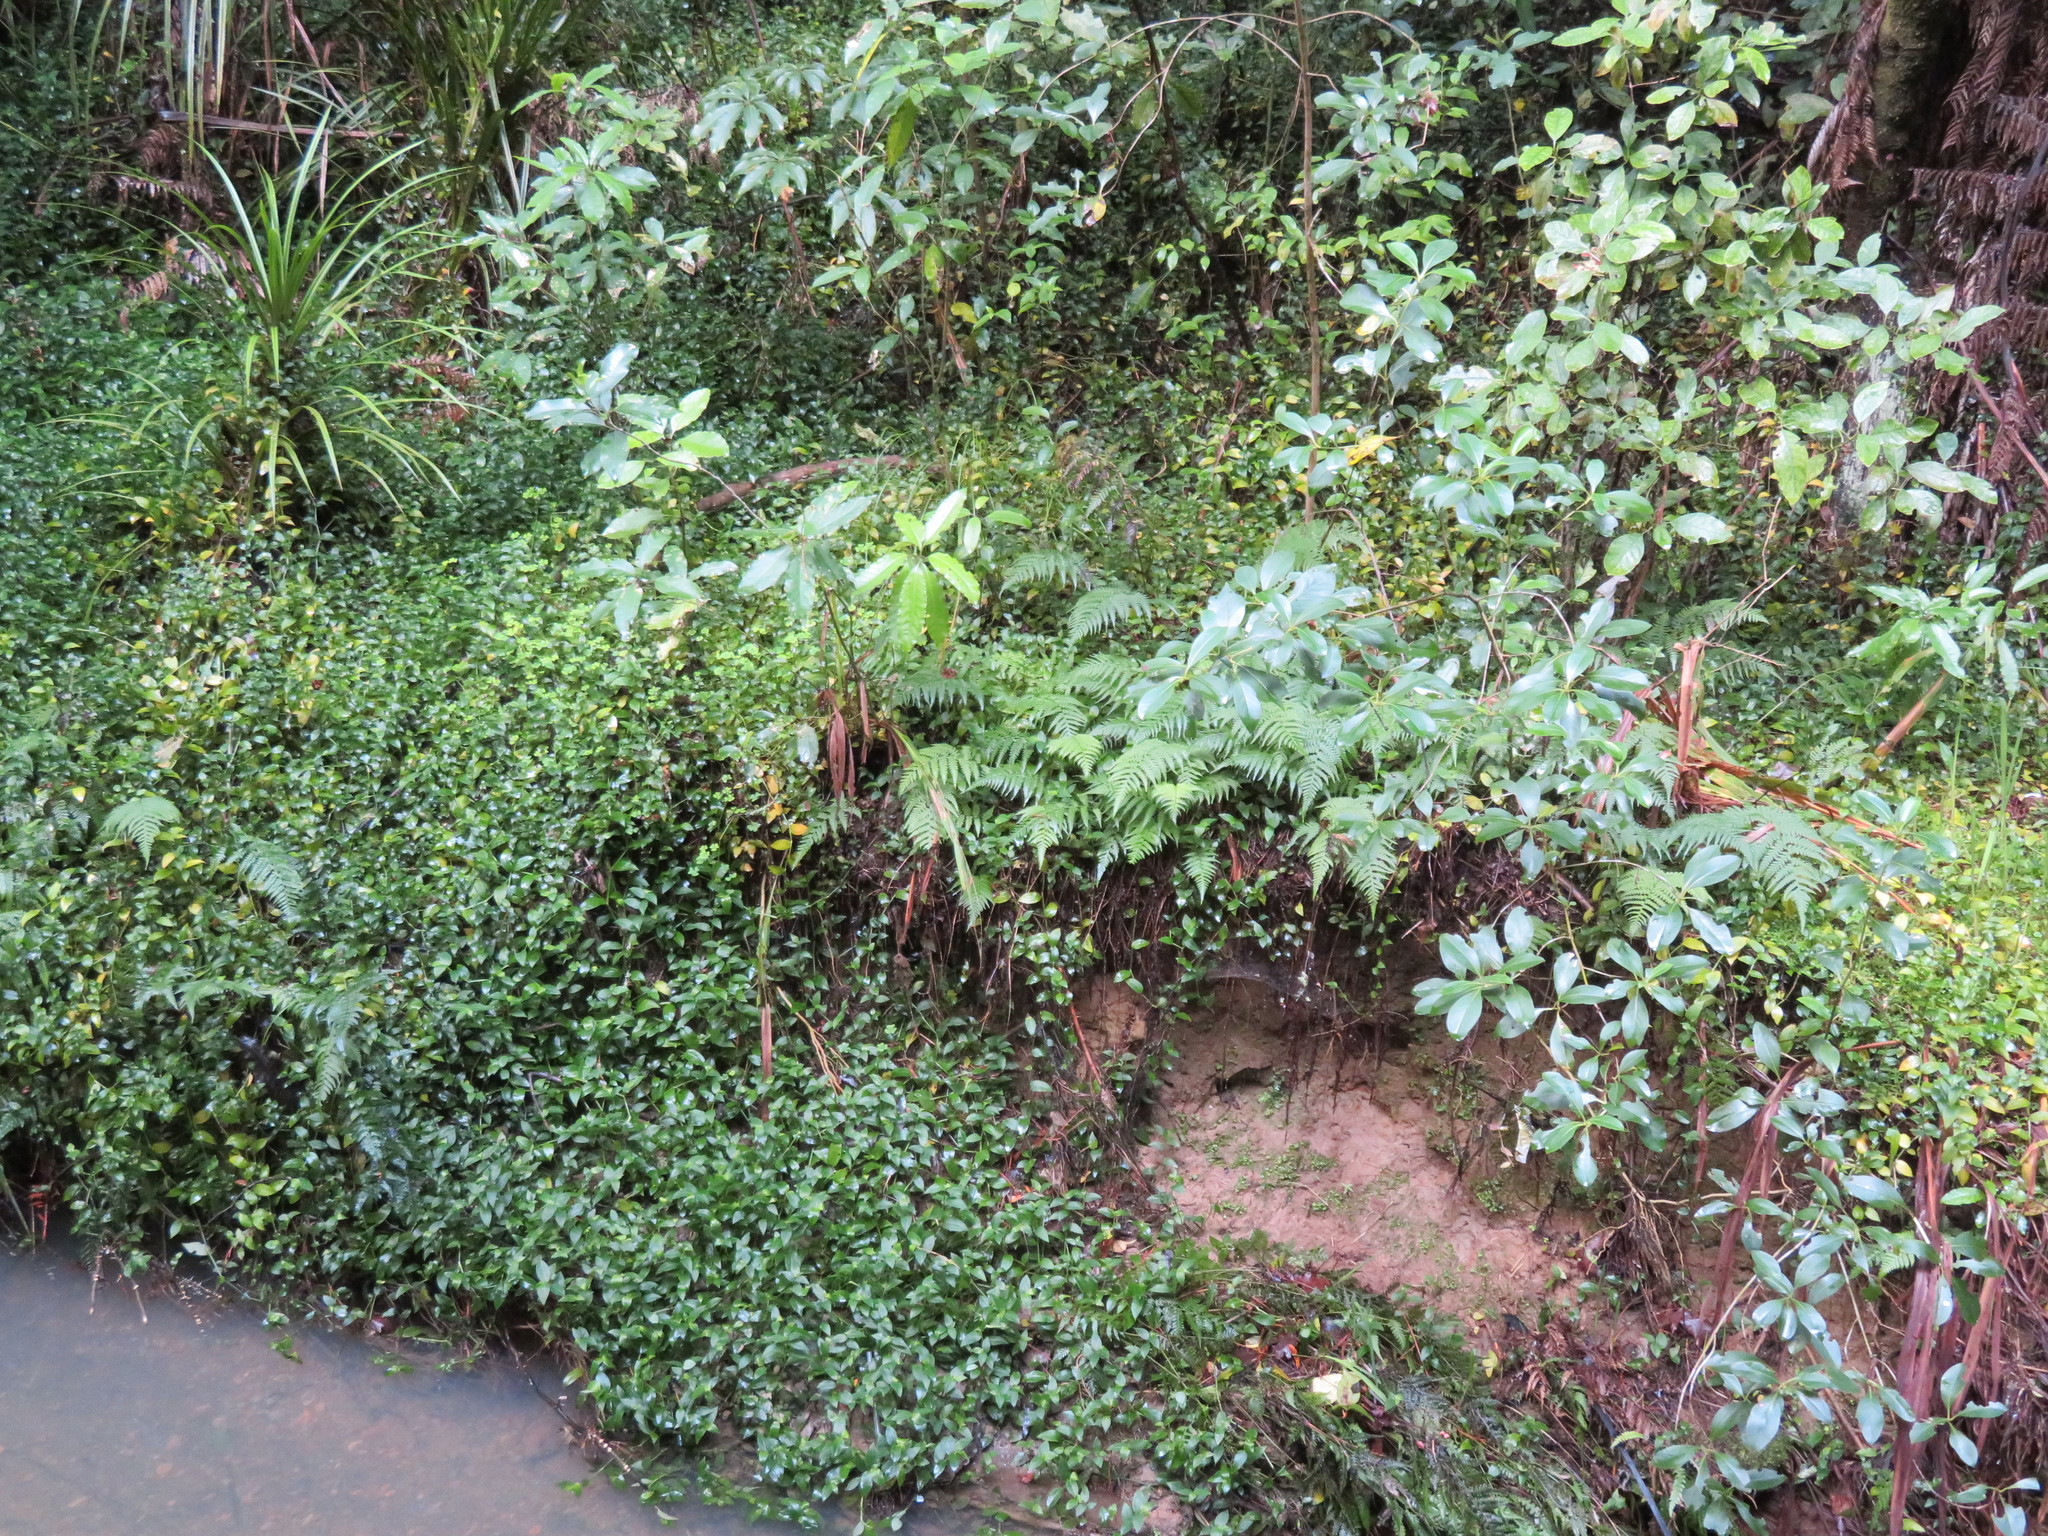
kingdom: Plantae
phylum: Tracheophyta
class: Polypodiopsida
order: Polypodiales
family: Athyriaceae
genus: Deparia
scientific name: Deparia petersenii
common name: Japanese false spleenwort
